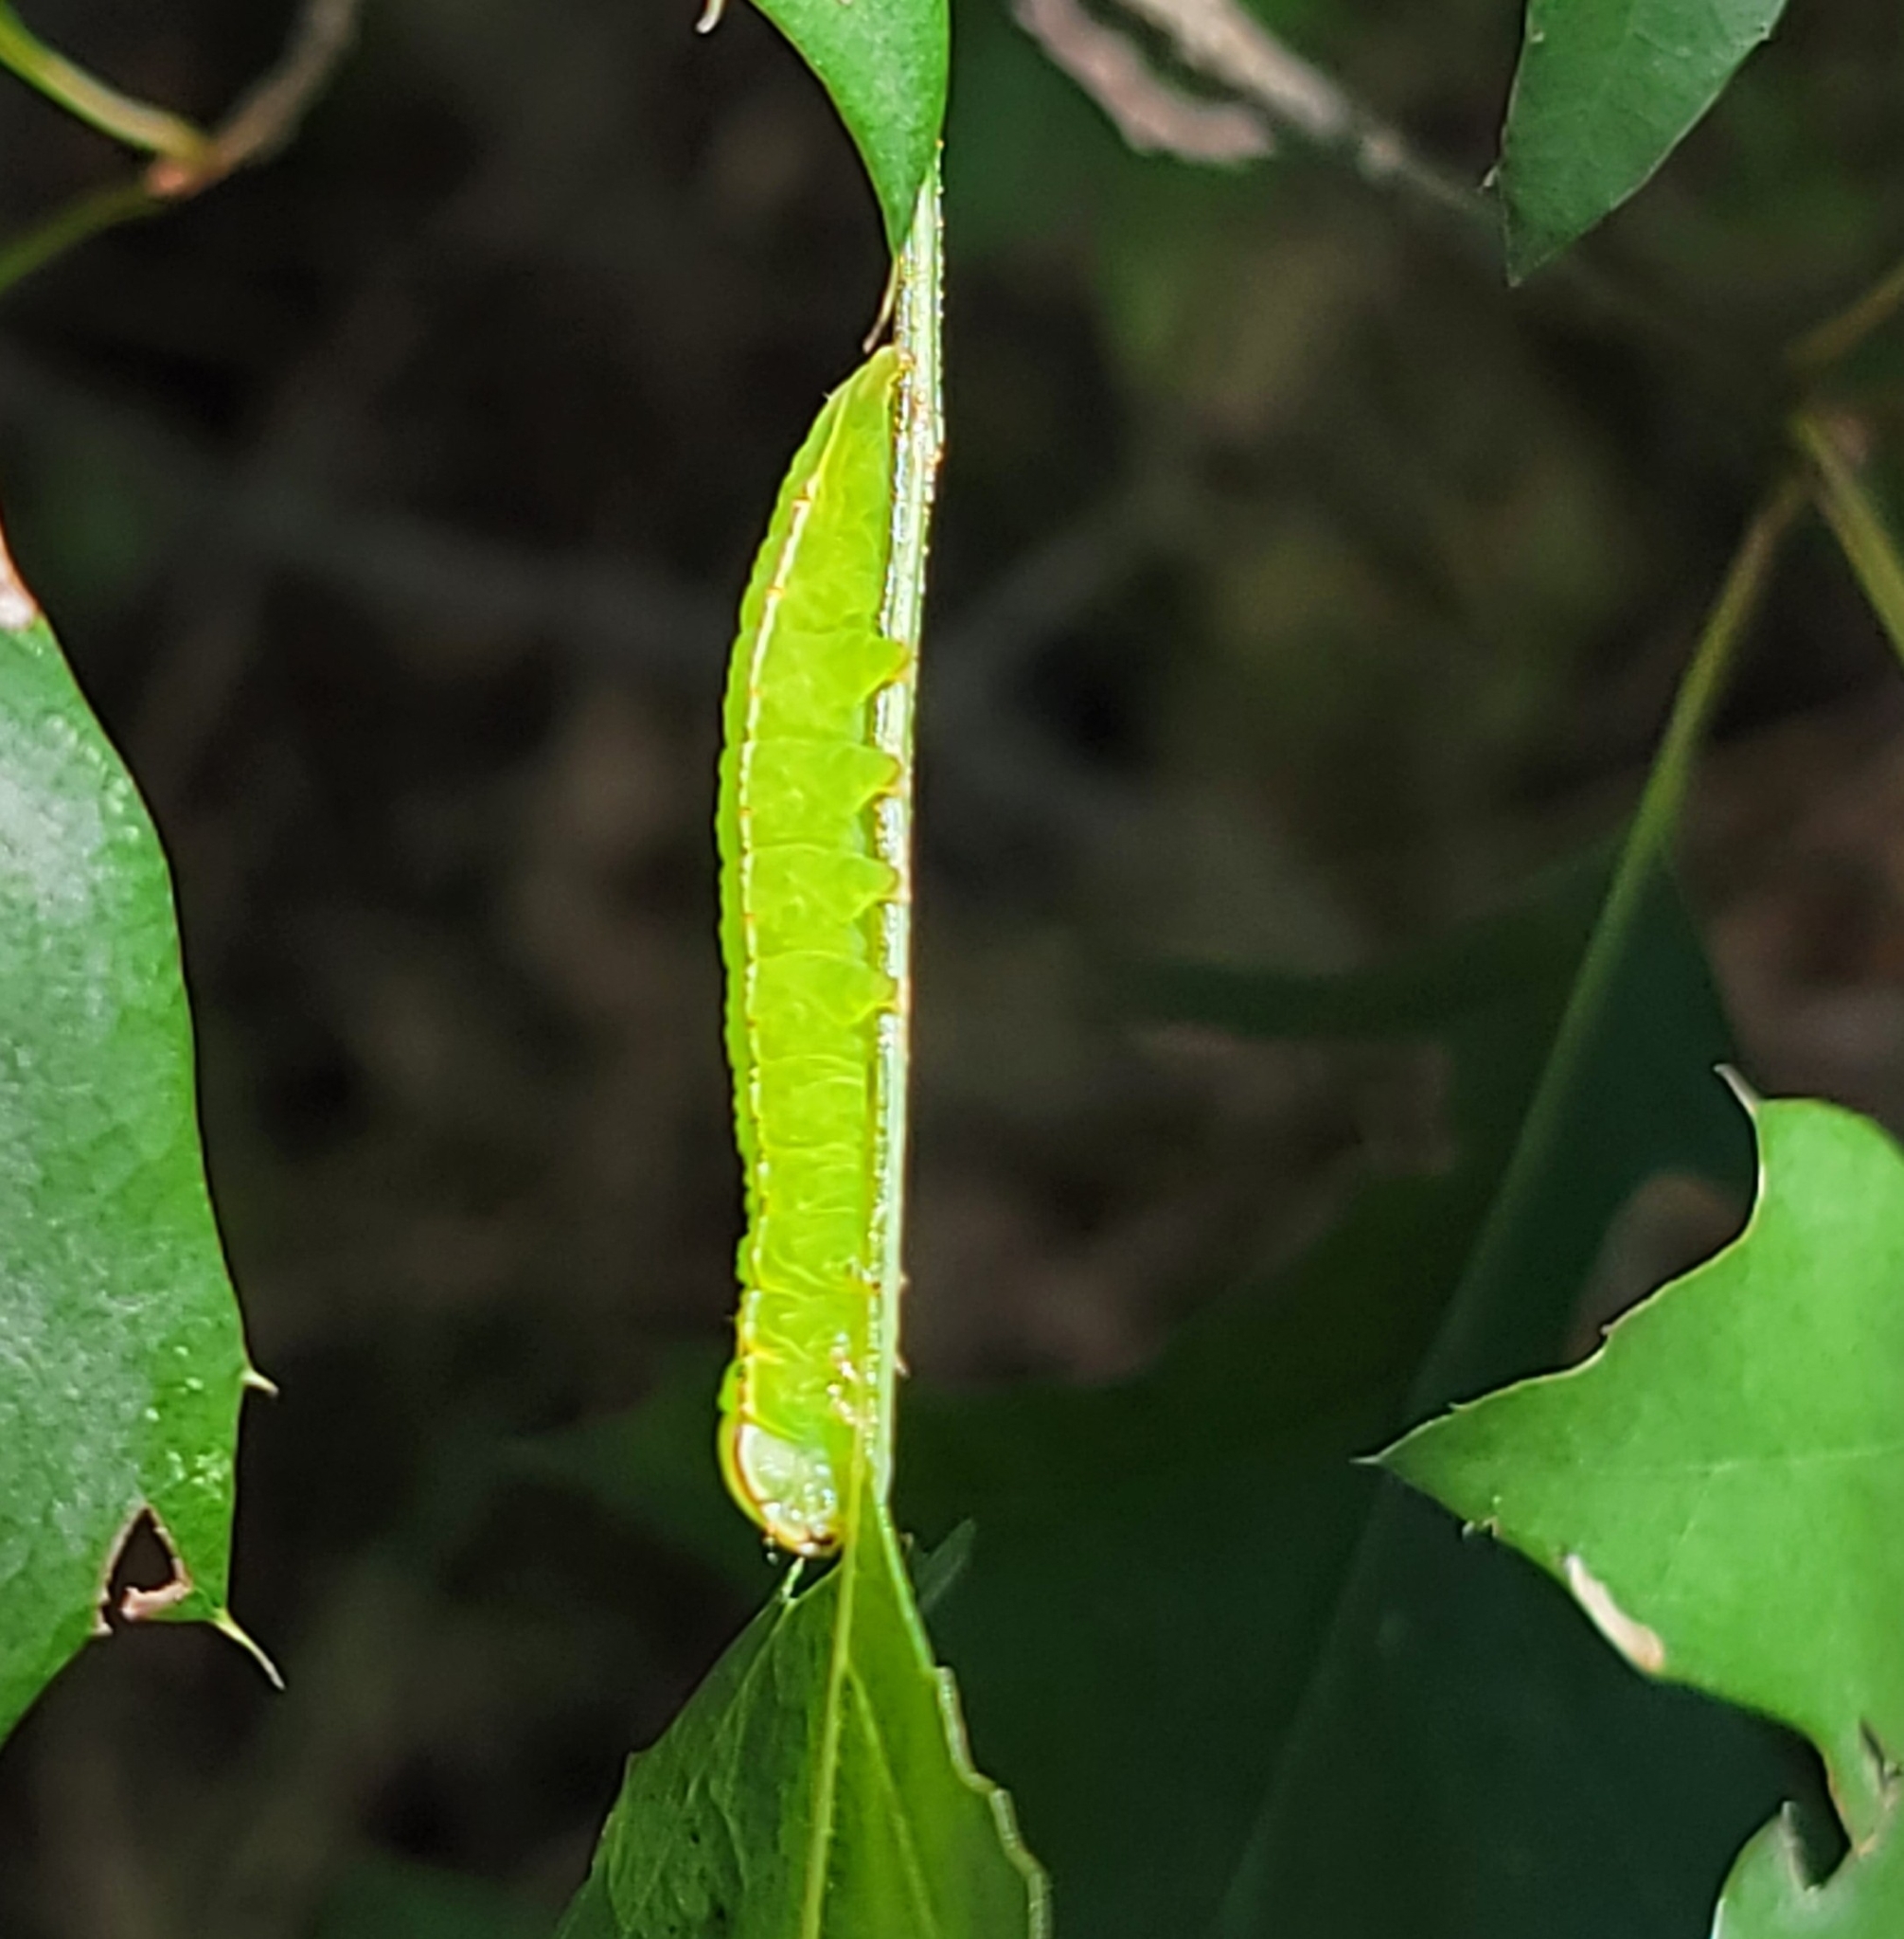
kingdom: Animalia
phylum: Arthropoda
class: Insecta
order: Lepidoptera
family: Notodontidae
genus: Peridea
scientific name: Peridea angulosa
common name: Angulose prominent
